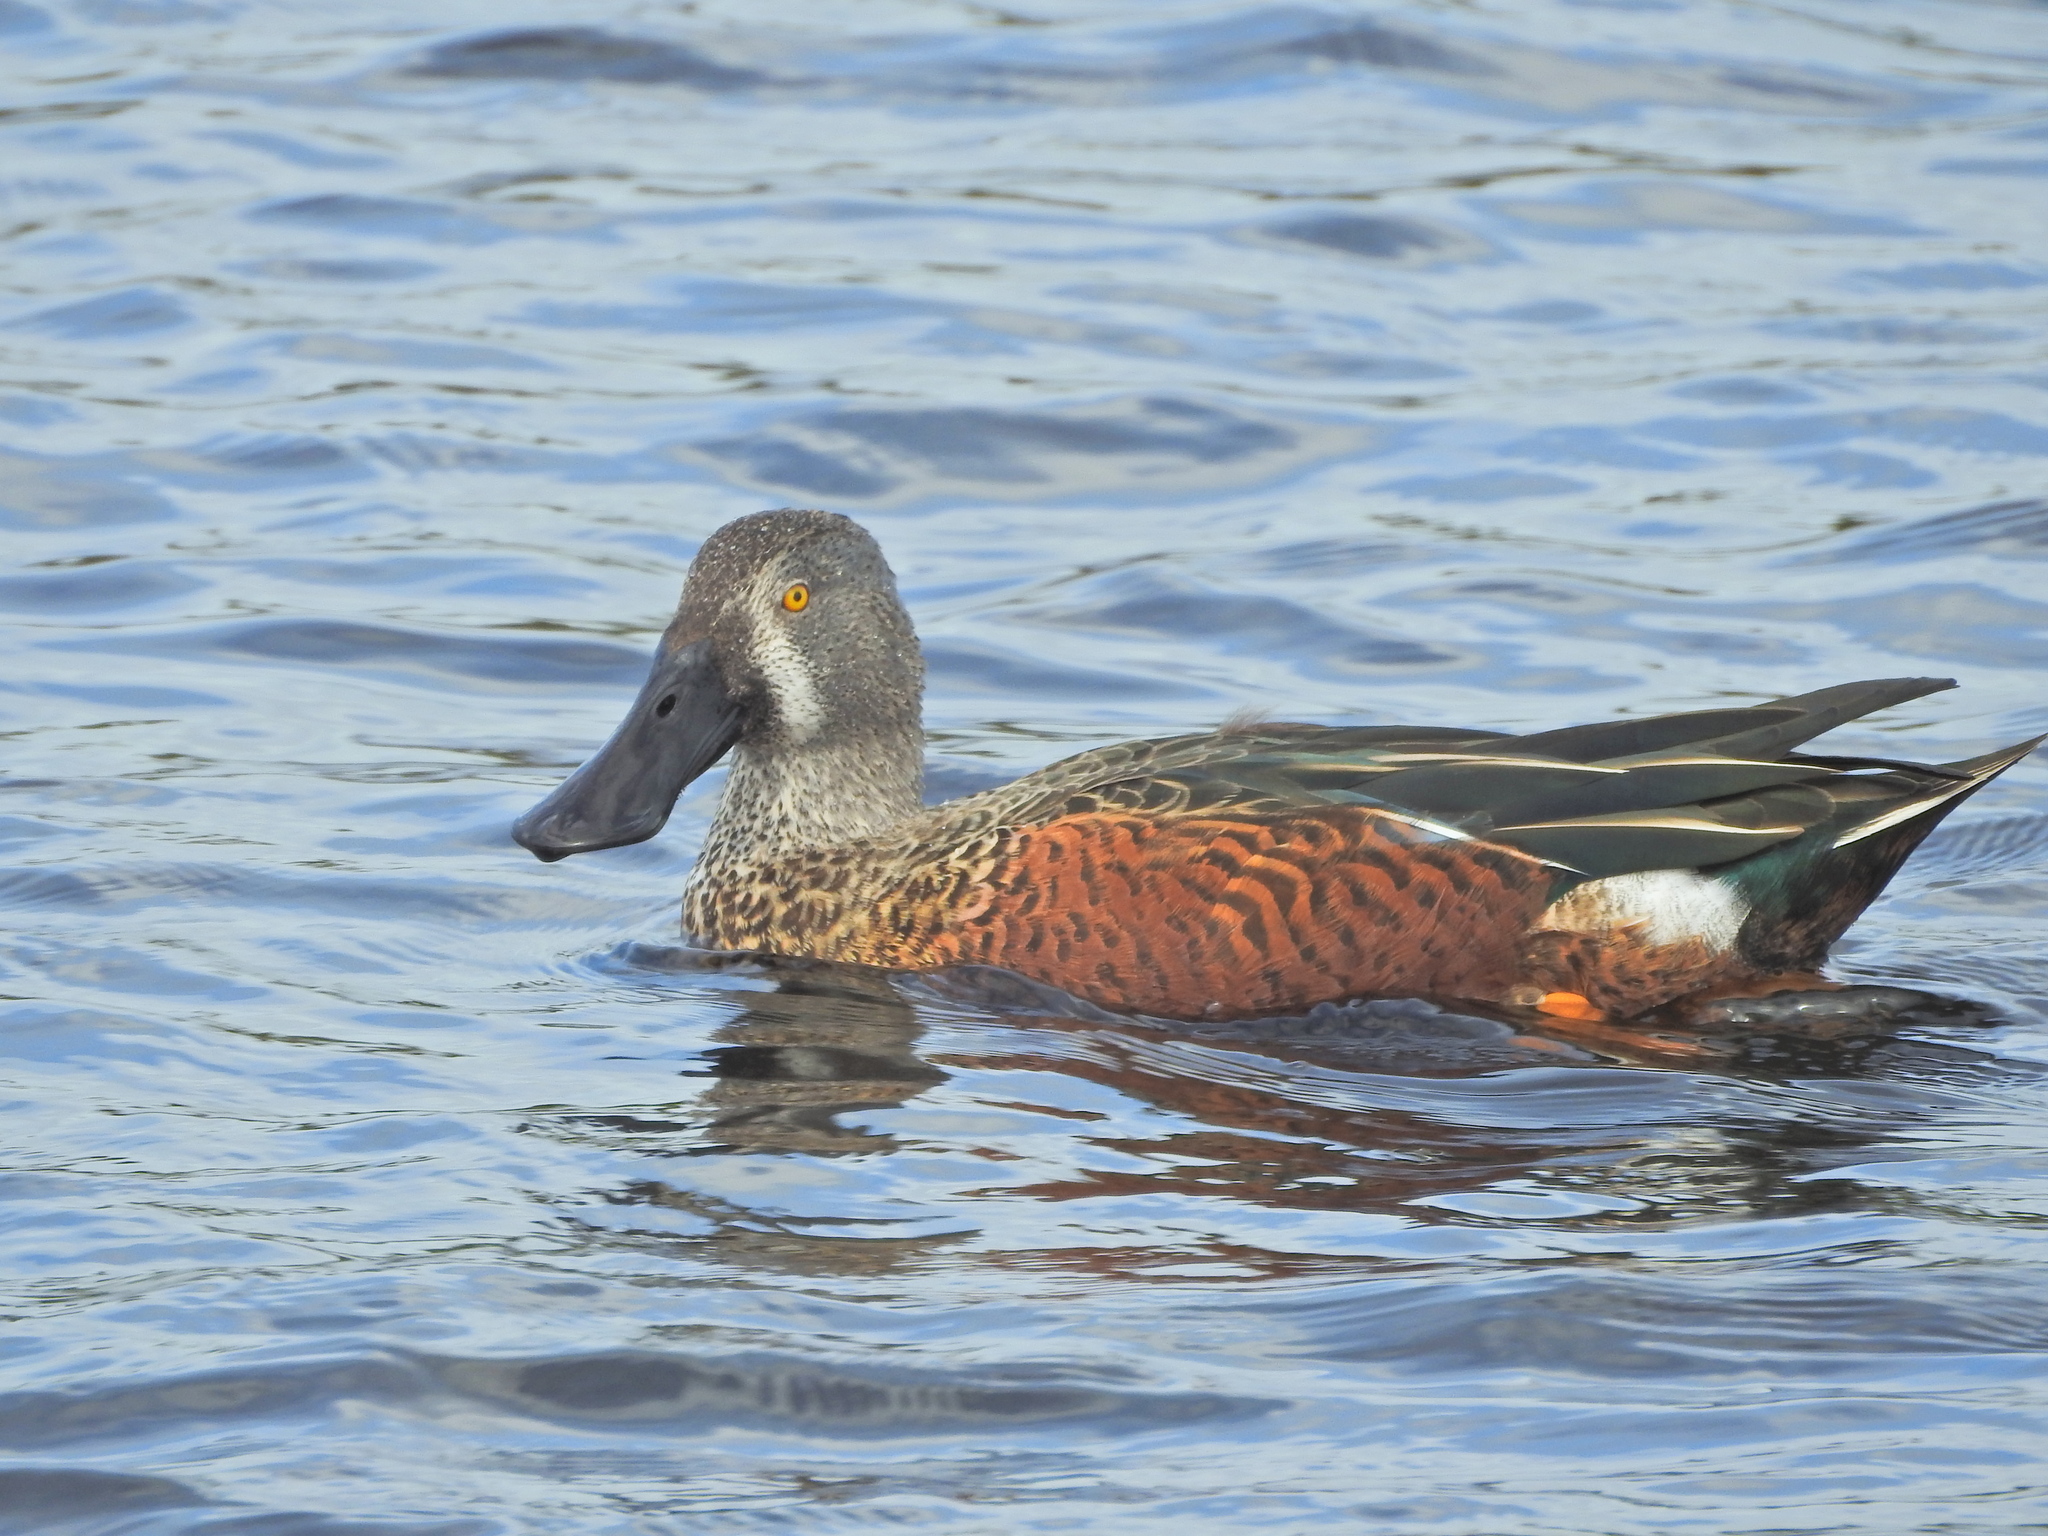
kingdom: Animalia
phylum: Chordata
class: Aves
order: Anseriformes
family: Anatidae
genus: Spatula
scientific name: Spatula rhynchotis
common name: Australian shoveler
